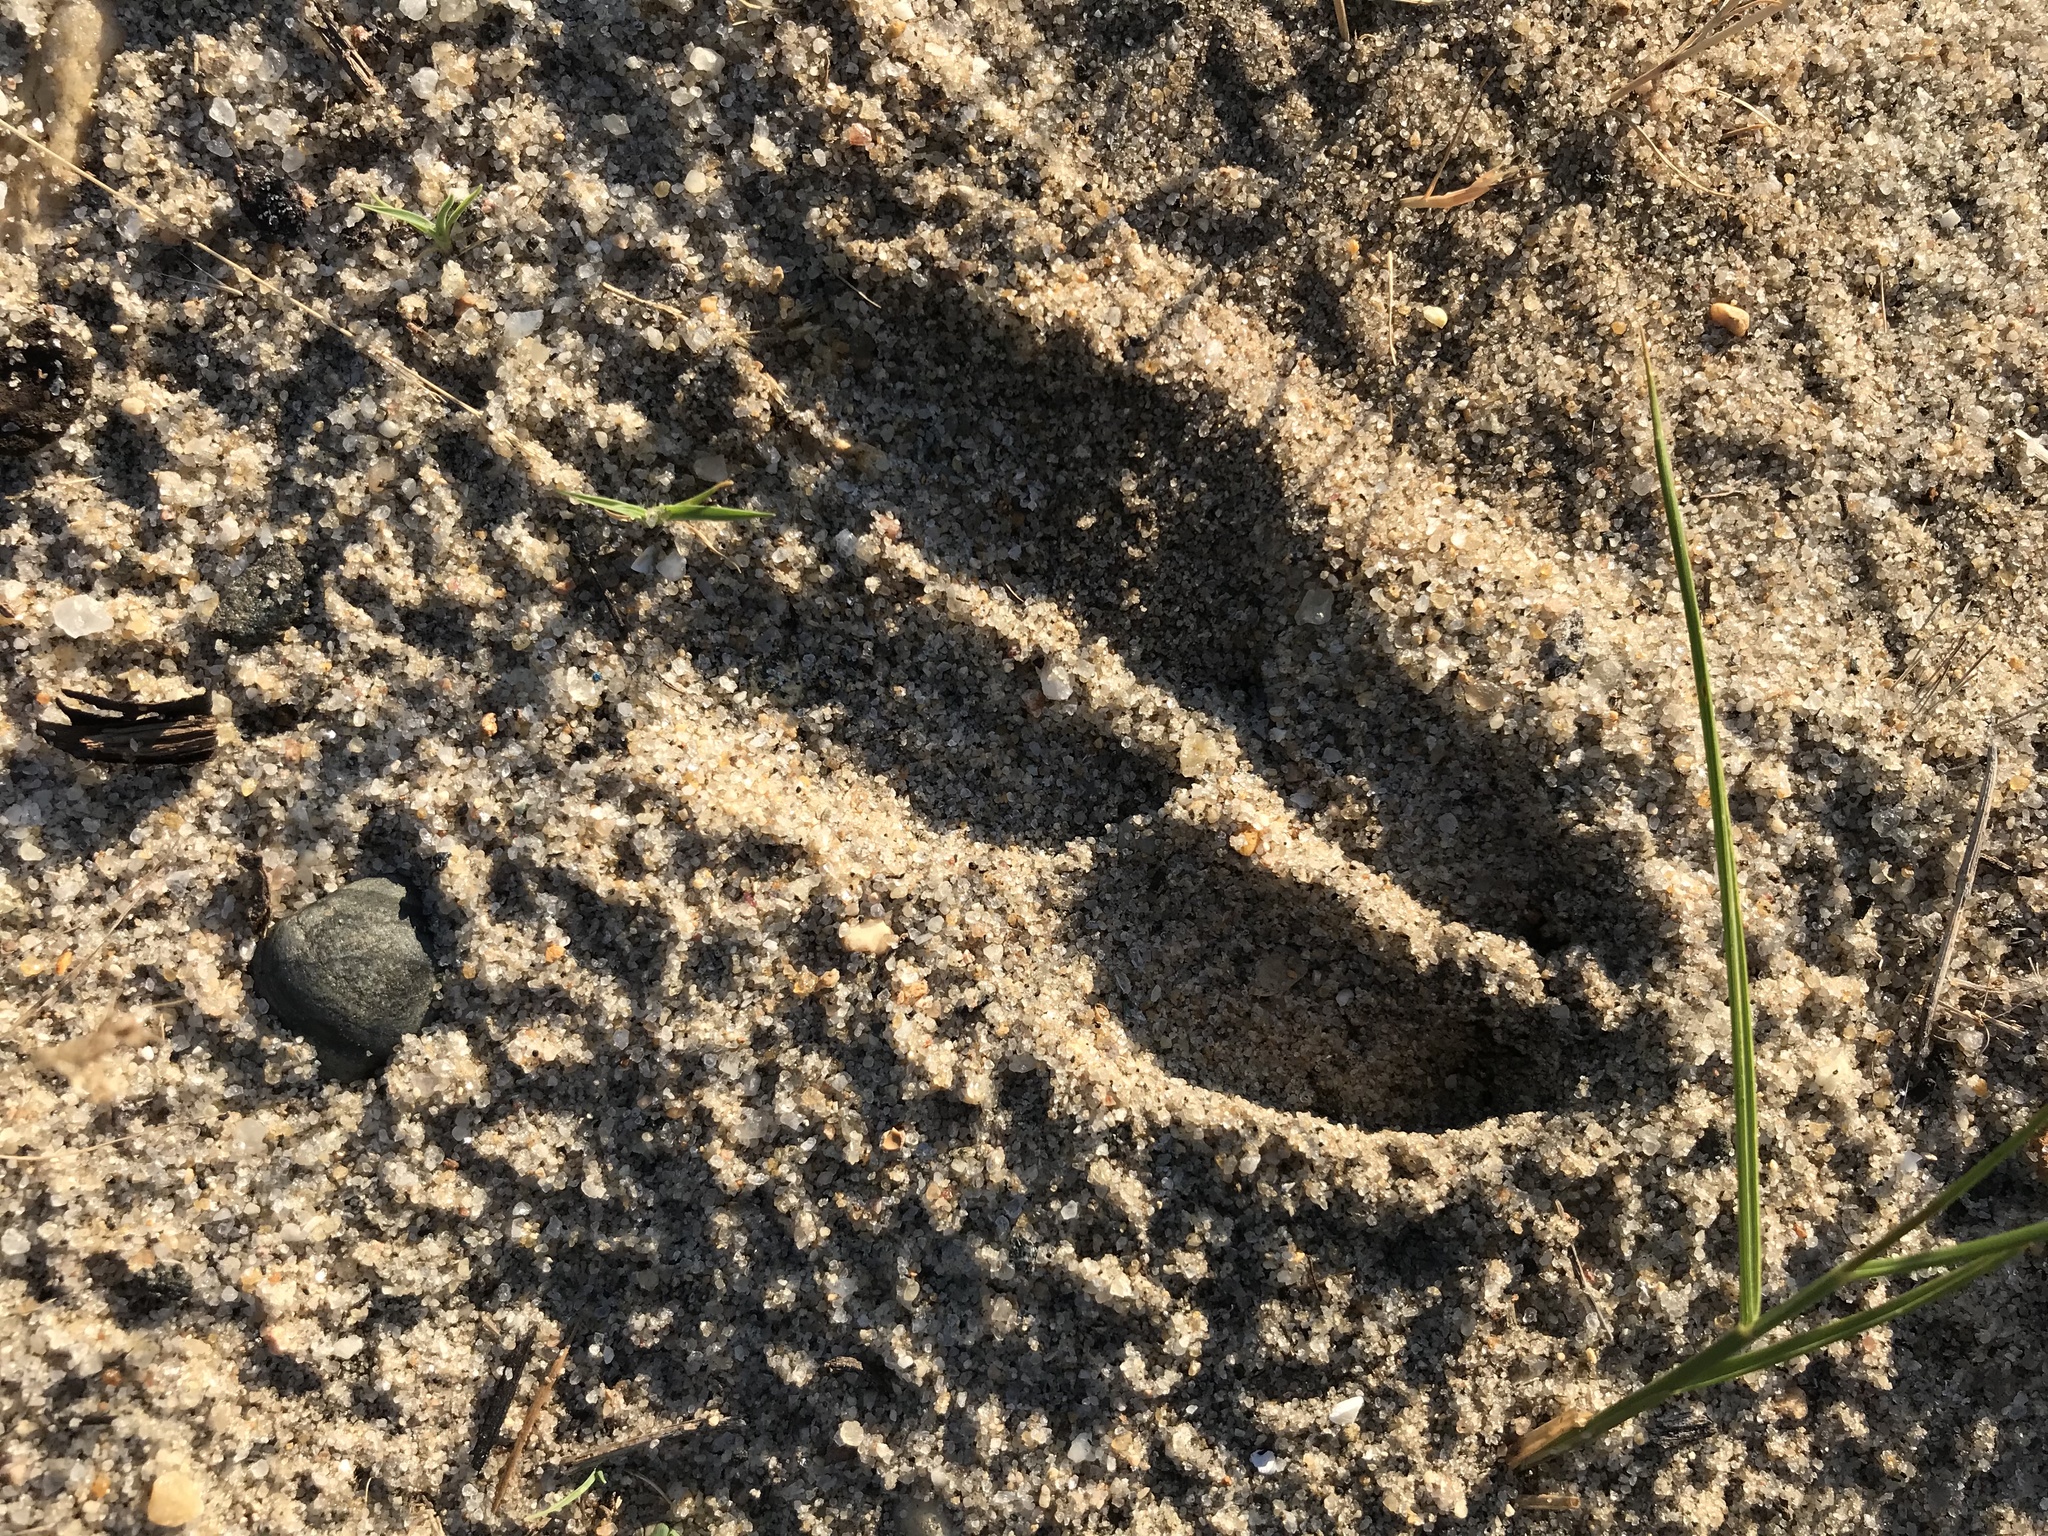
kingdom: Animalia
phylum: Chordata
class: Mammalia
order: Artiodactyla
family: Cervidae
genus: Odocoileus
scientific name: Odocoileus virginianus
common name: White-tailed deer
